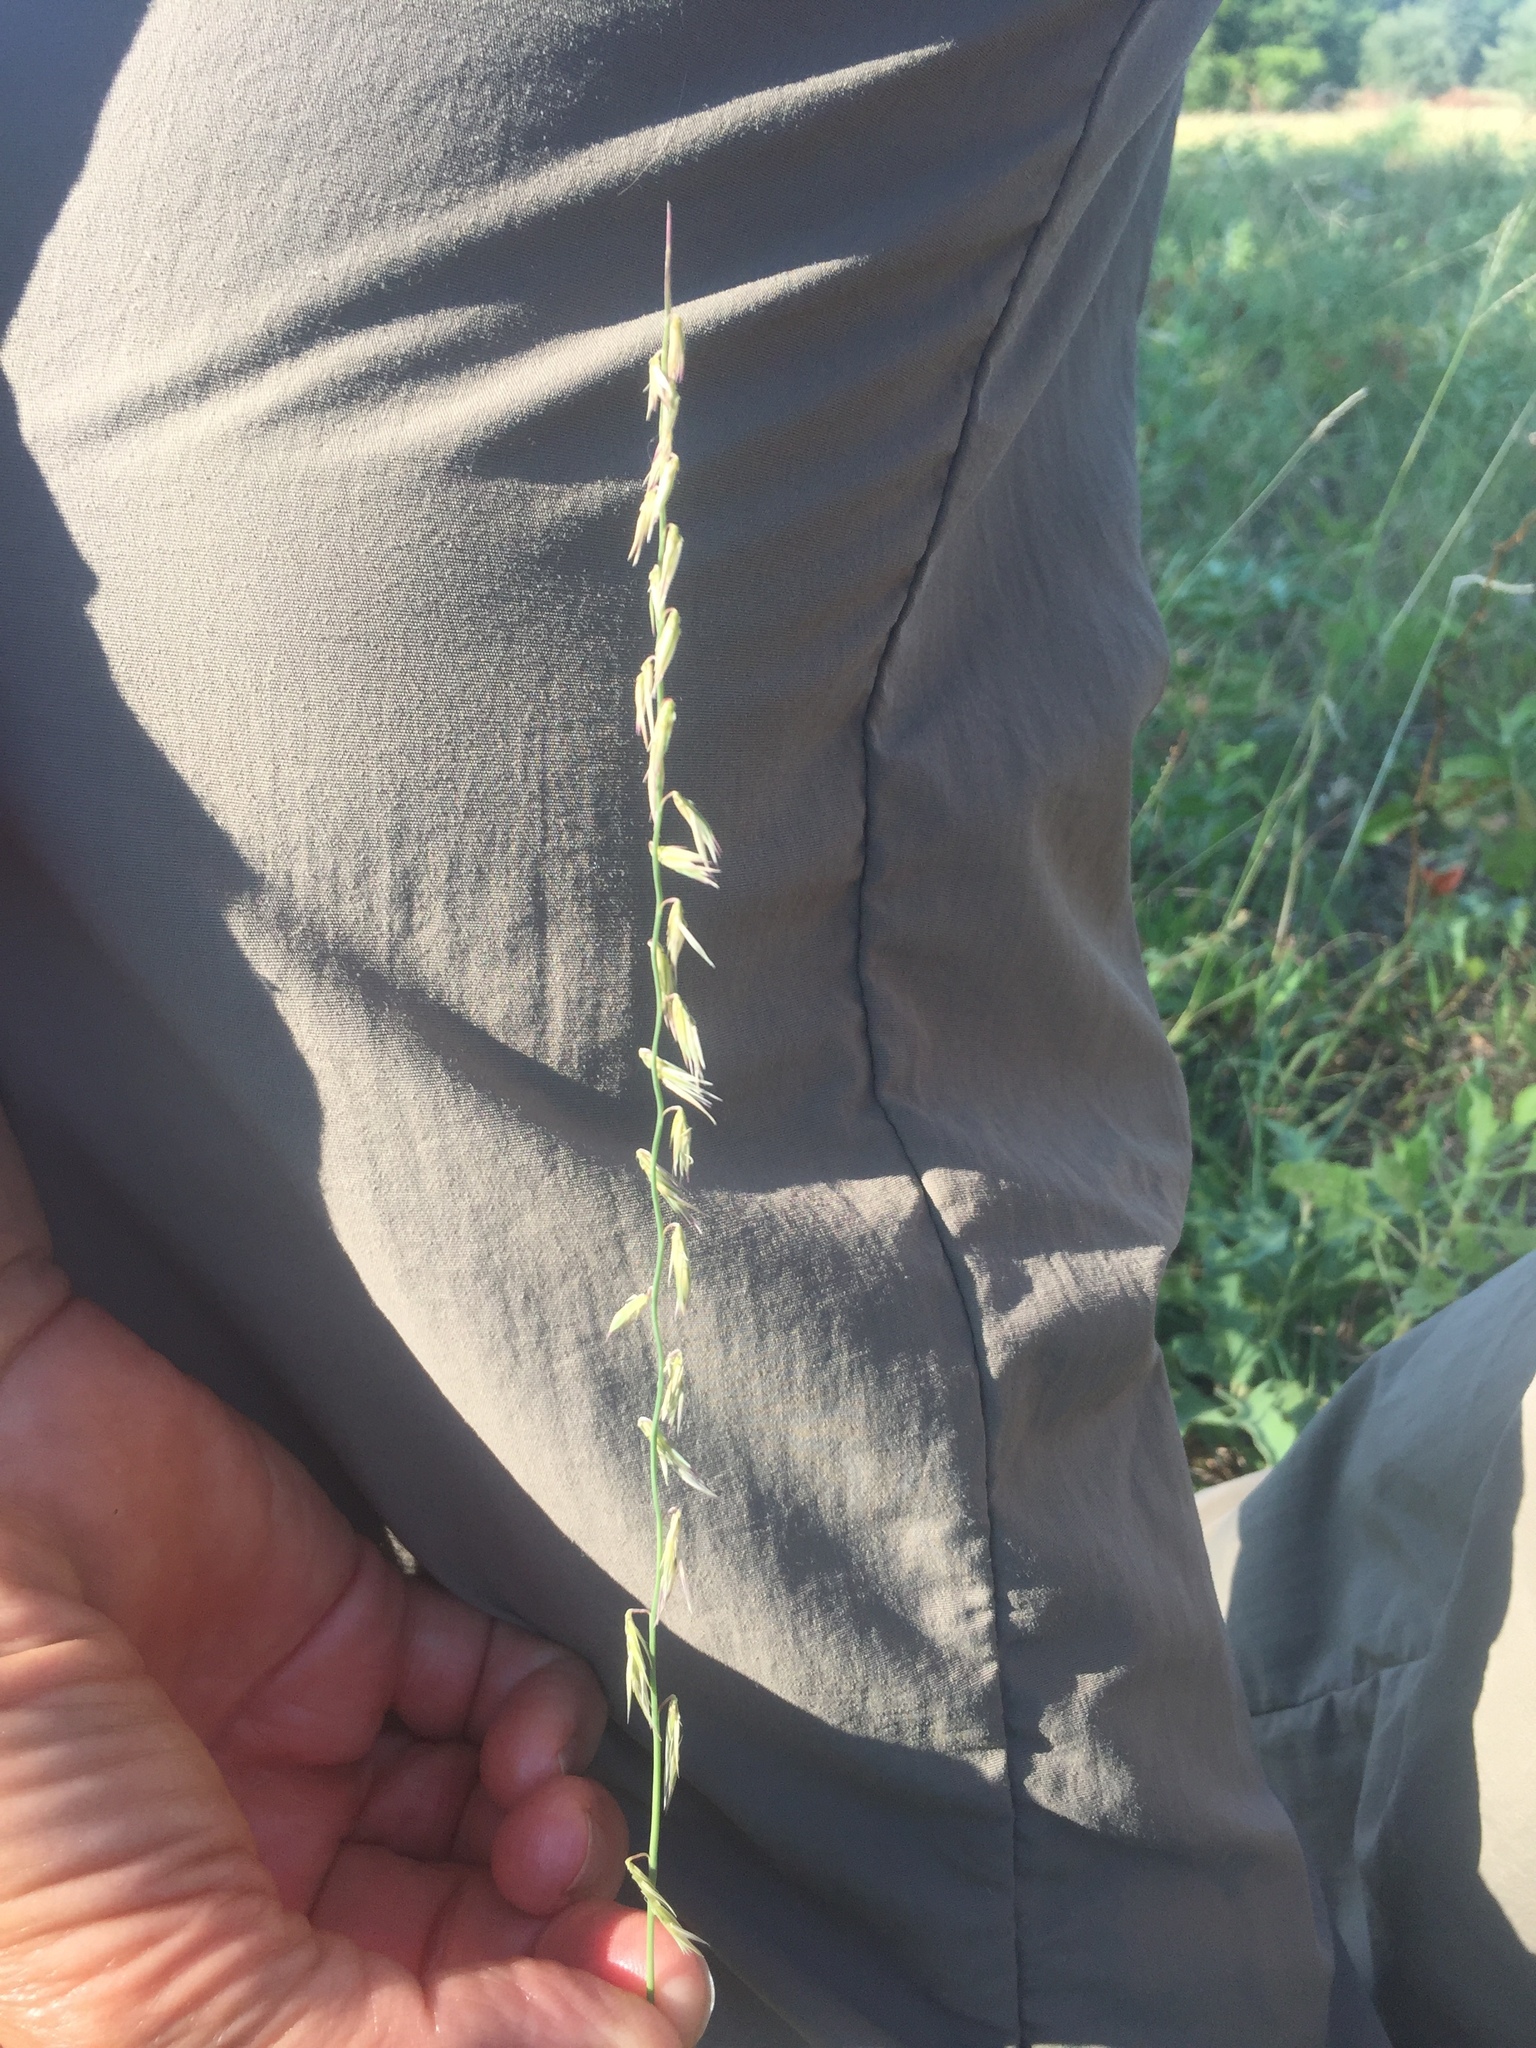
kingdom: Plantae
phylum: Tracheophyta
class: Liliopsida
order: Poales
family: Poaceae
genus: Bouteloua
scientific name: Bouteloua curtipendula
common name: Side-oats grama
